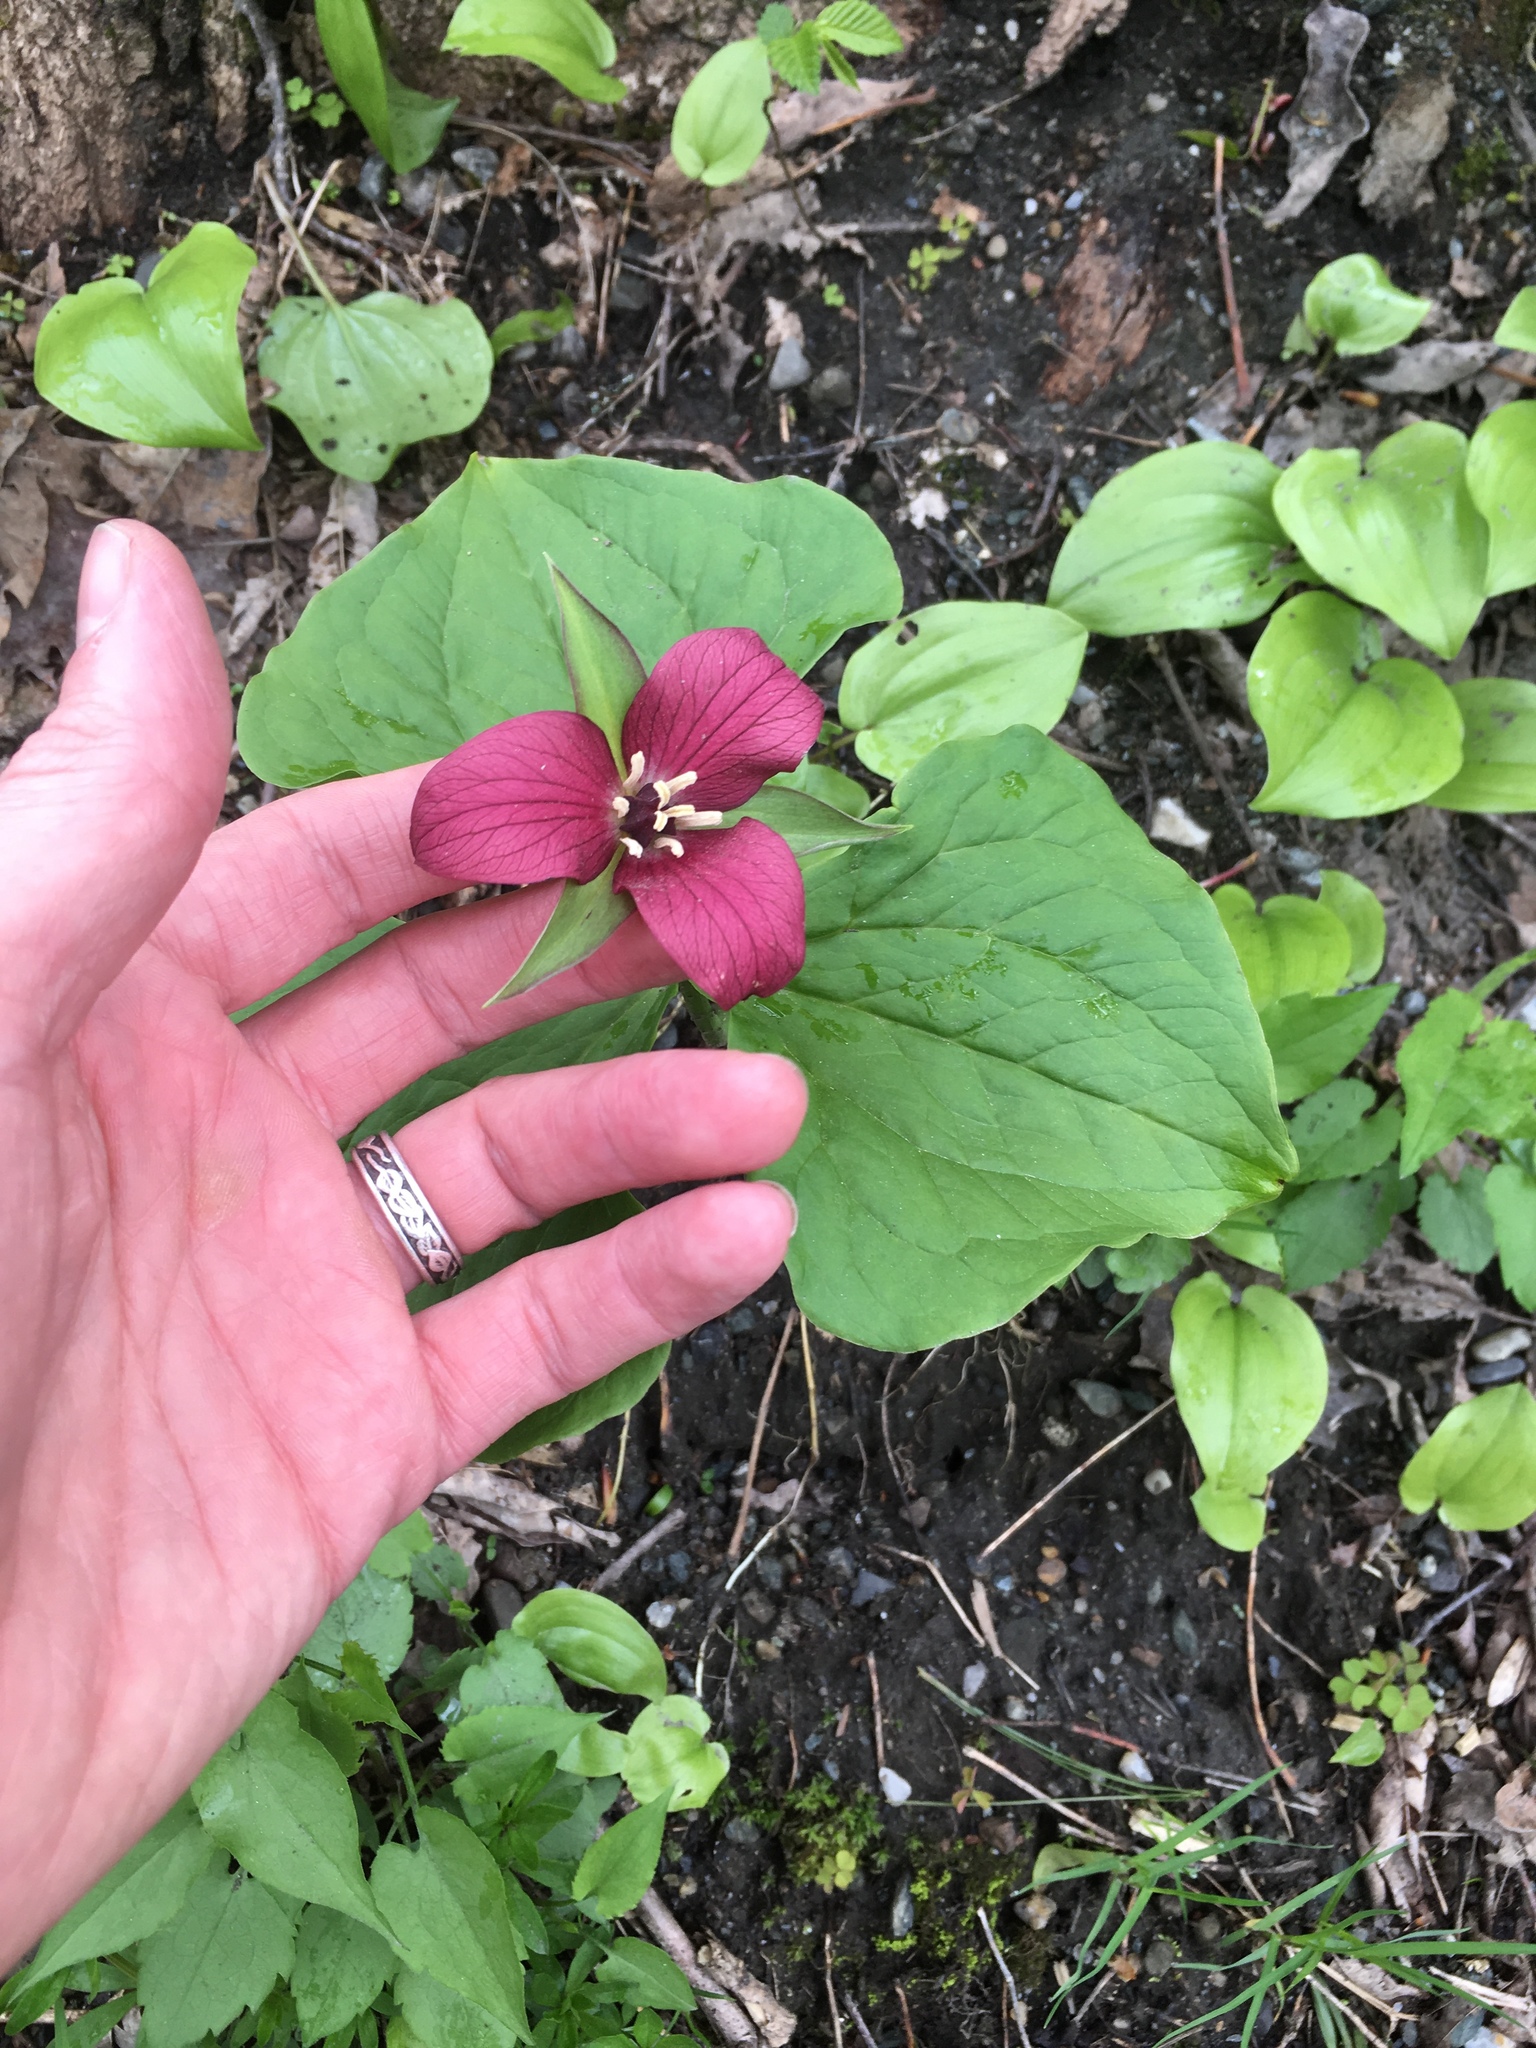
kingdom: Plantae
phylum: Tracheophyta
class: Liliopsida
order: Liliales
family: Melanthiaceae
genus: Trillium
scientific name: Trillium erectum
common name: Purple trillium
